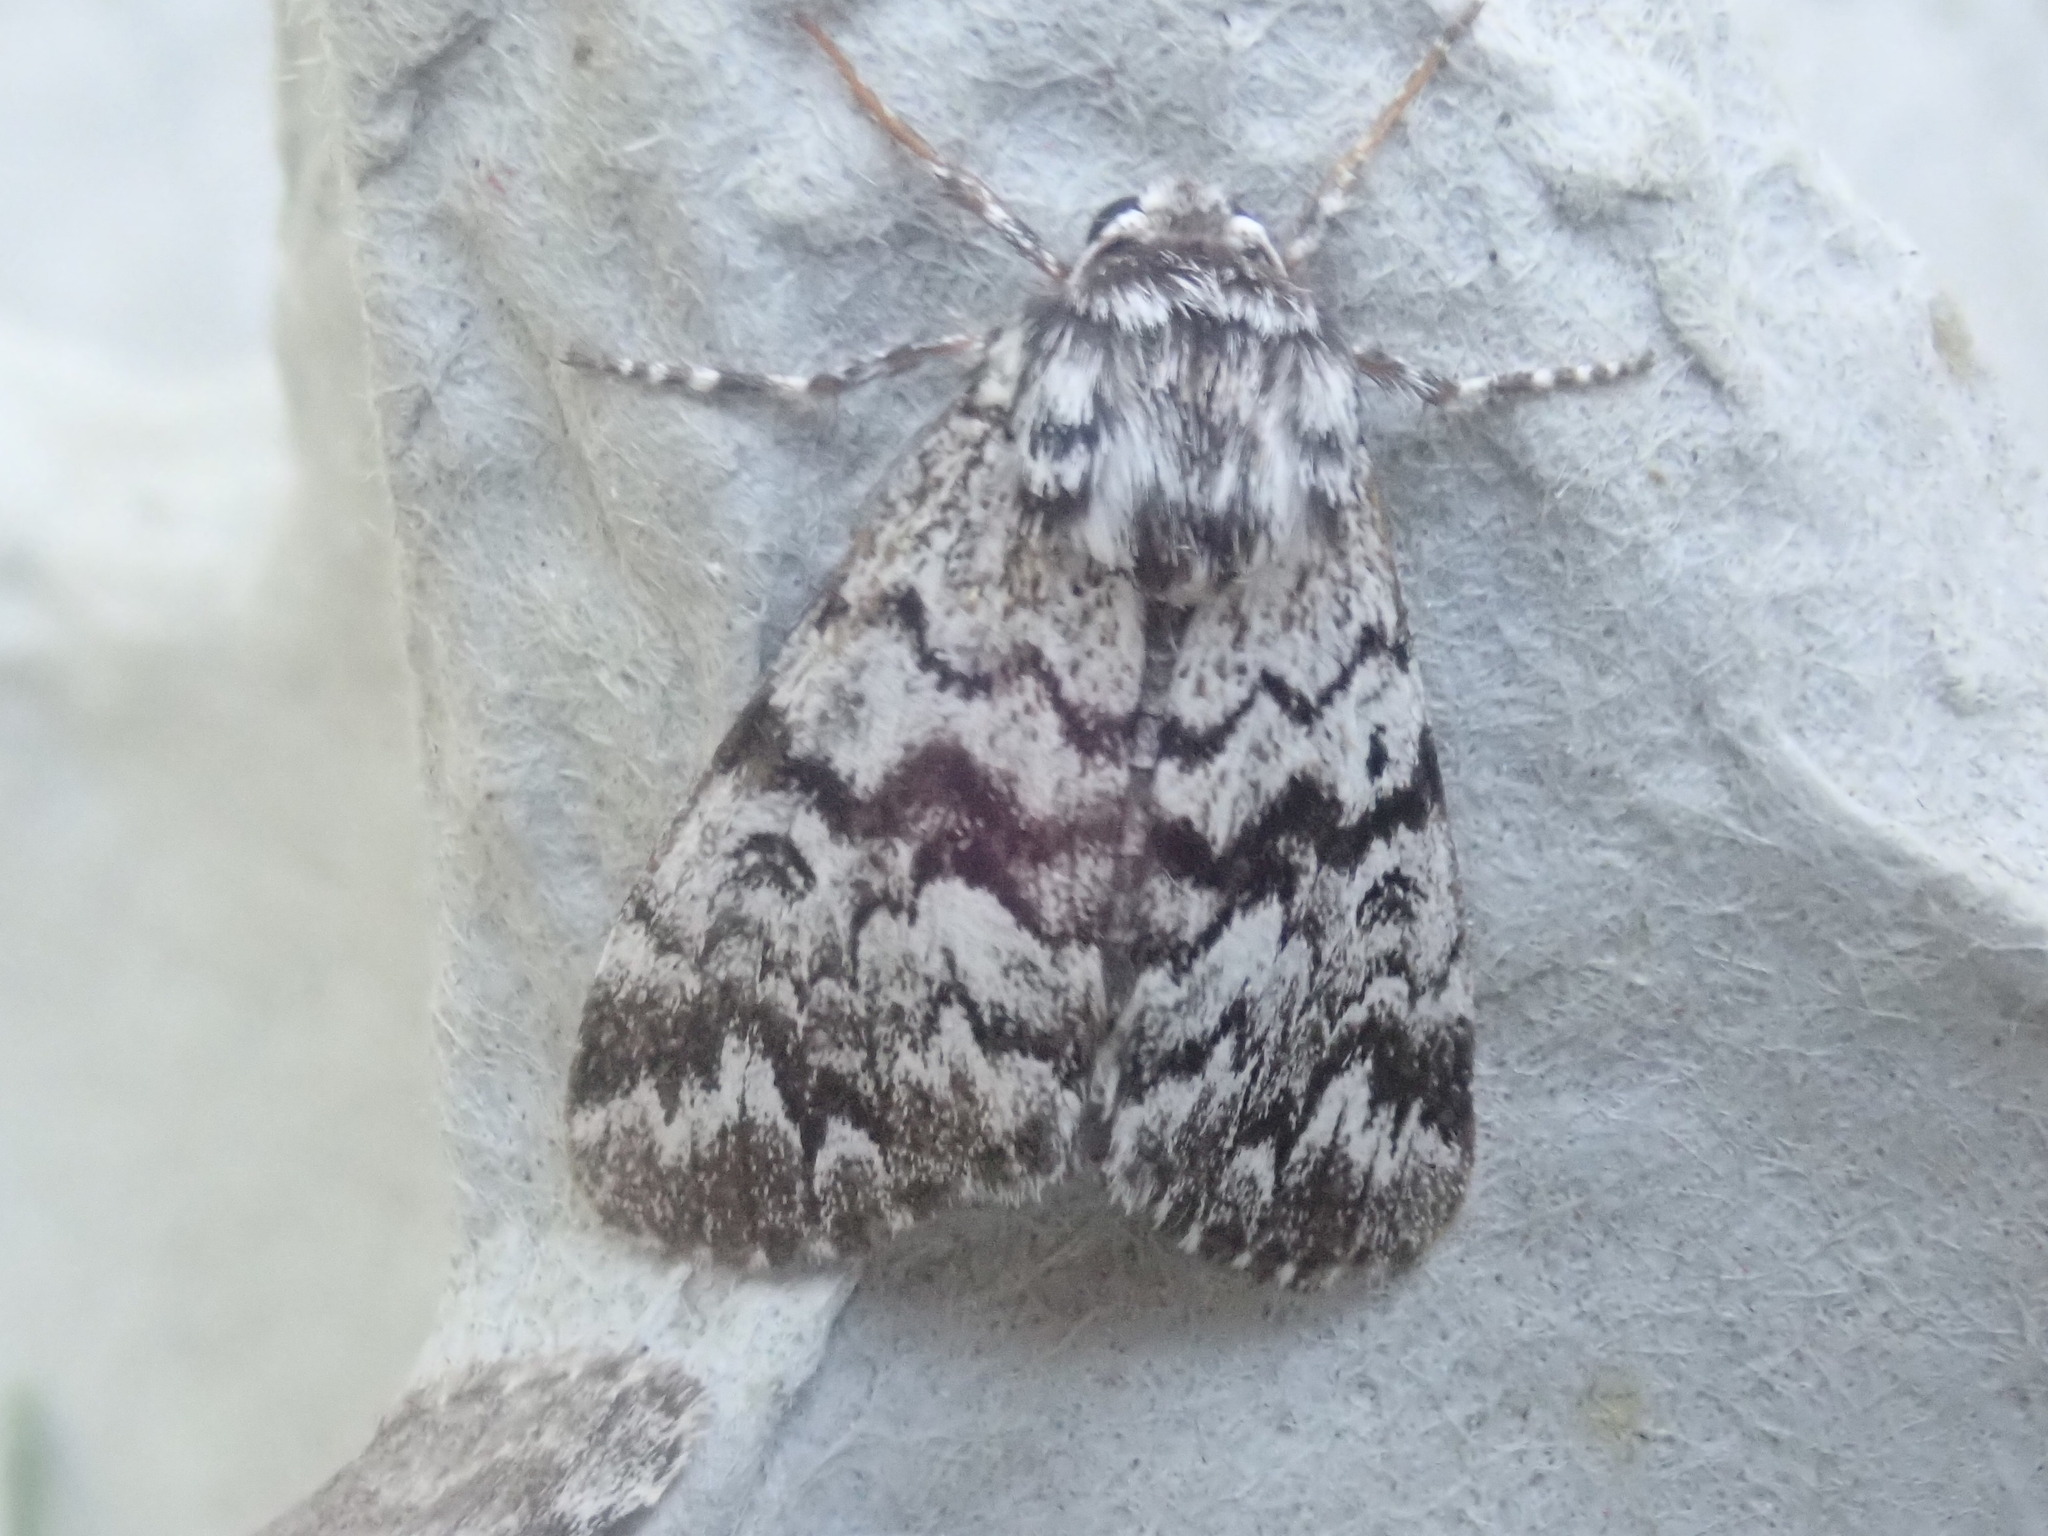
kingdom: Animalia
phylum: Arthropoda
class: Insecta
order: Lepidoptera
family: Noctuidae
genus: Panthea
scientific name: Panthea acronyctoides
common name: Black zigzag moth
